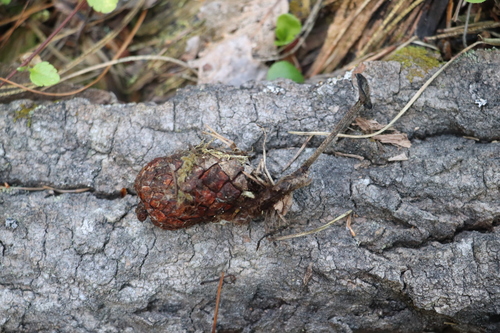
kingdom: Fungi
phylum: Basidiomycota
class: Agaricomycetes
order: Russulales
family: Auriscalpiaceae
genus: Auriscalpium
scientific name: Auriscalpium vulgare
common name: Earpick fungus
